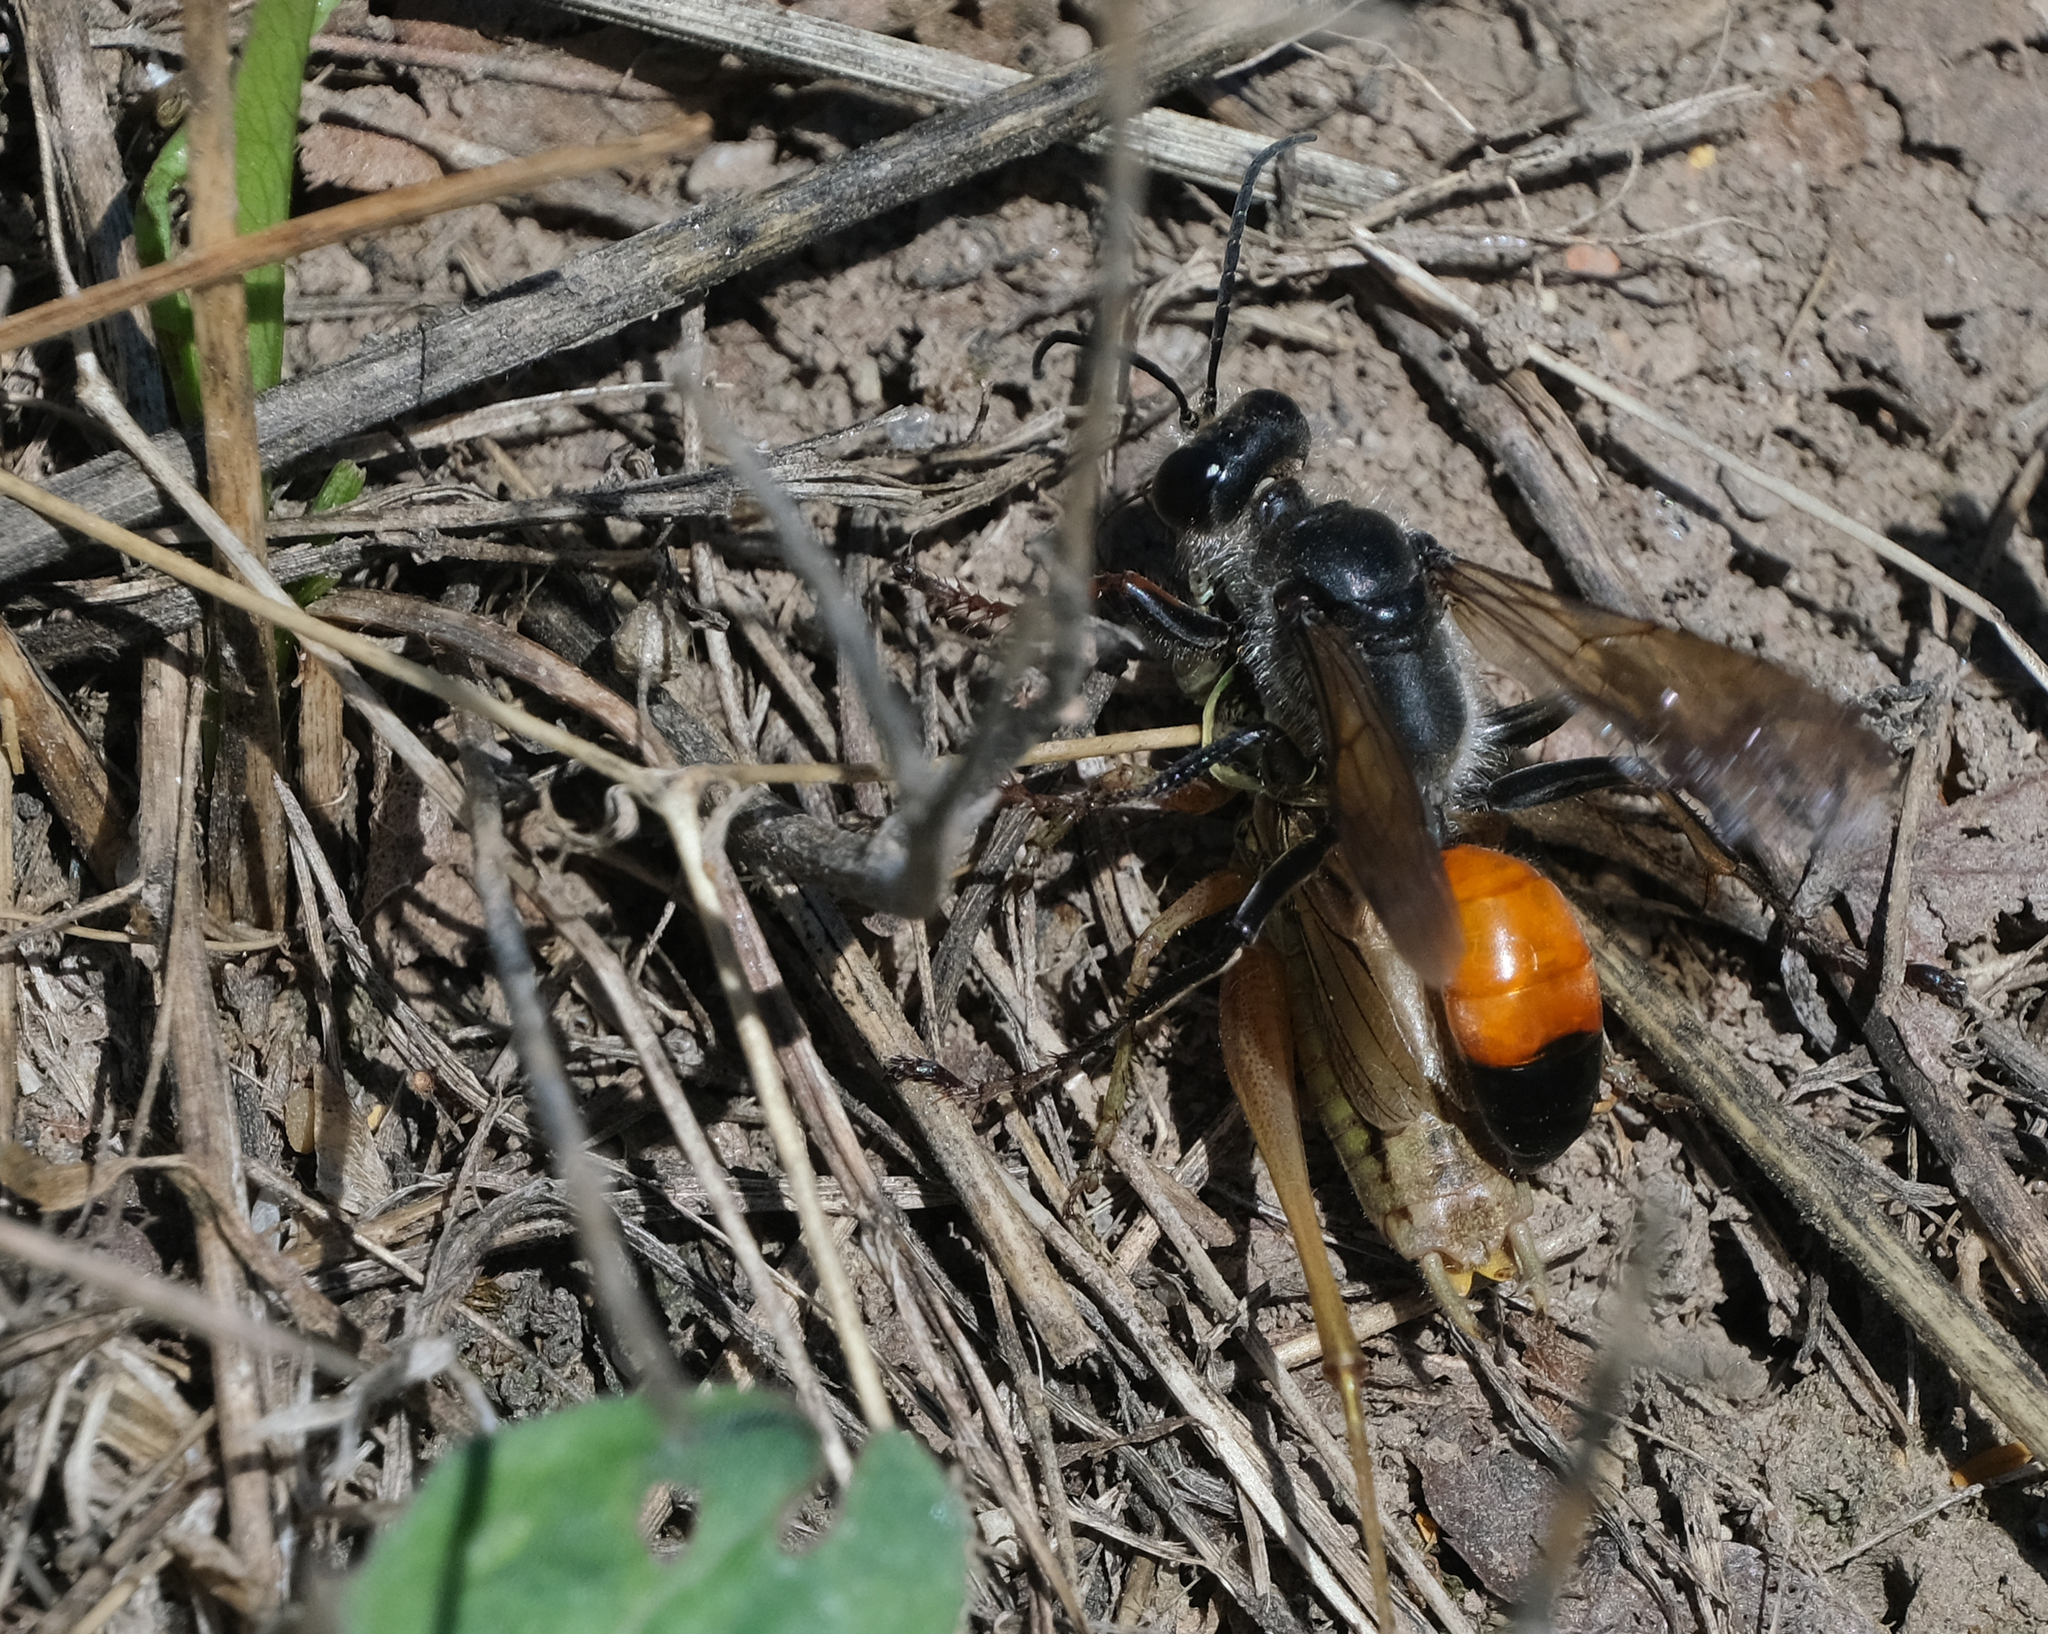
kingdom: Animalia
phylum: Arthropoda
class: Insecta
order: Hymenoptera
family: Sphecidae
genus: Sphex
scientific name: Sphex funerarius
